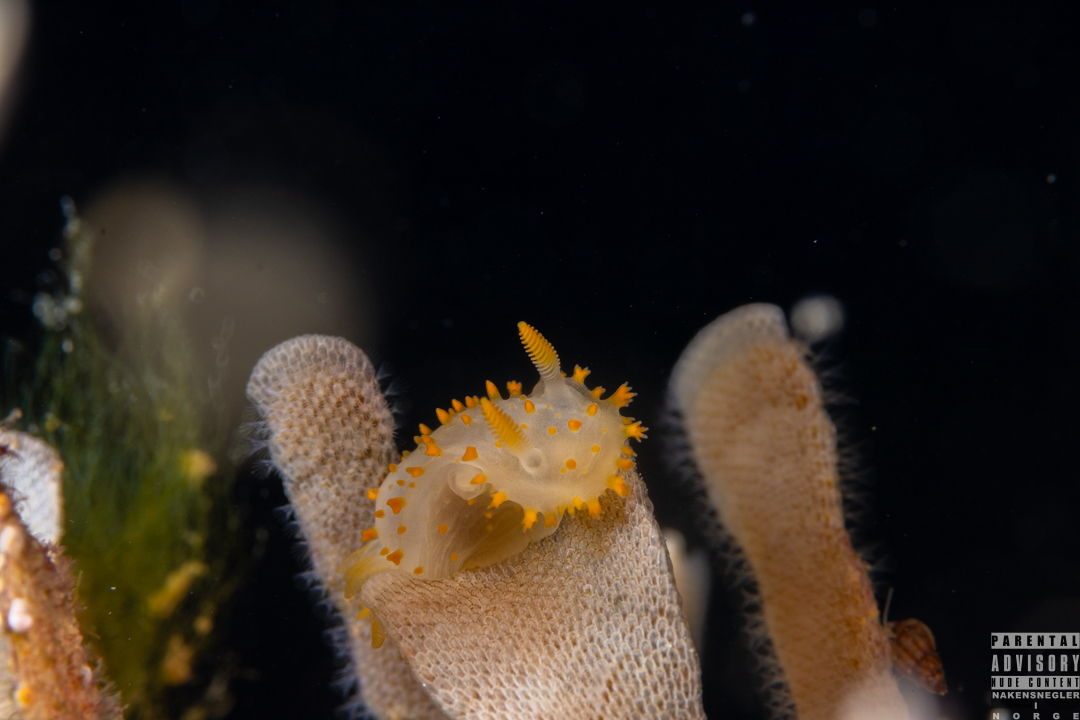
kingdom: Animalia
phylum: Mollusca
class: Gastropoda
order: Nudibranchia
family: Polyceridae
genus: Crimora
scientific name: Crimora papillata
